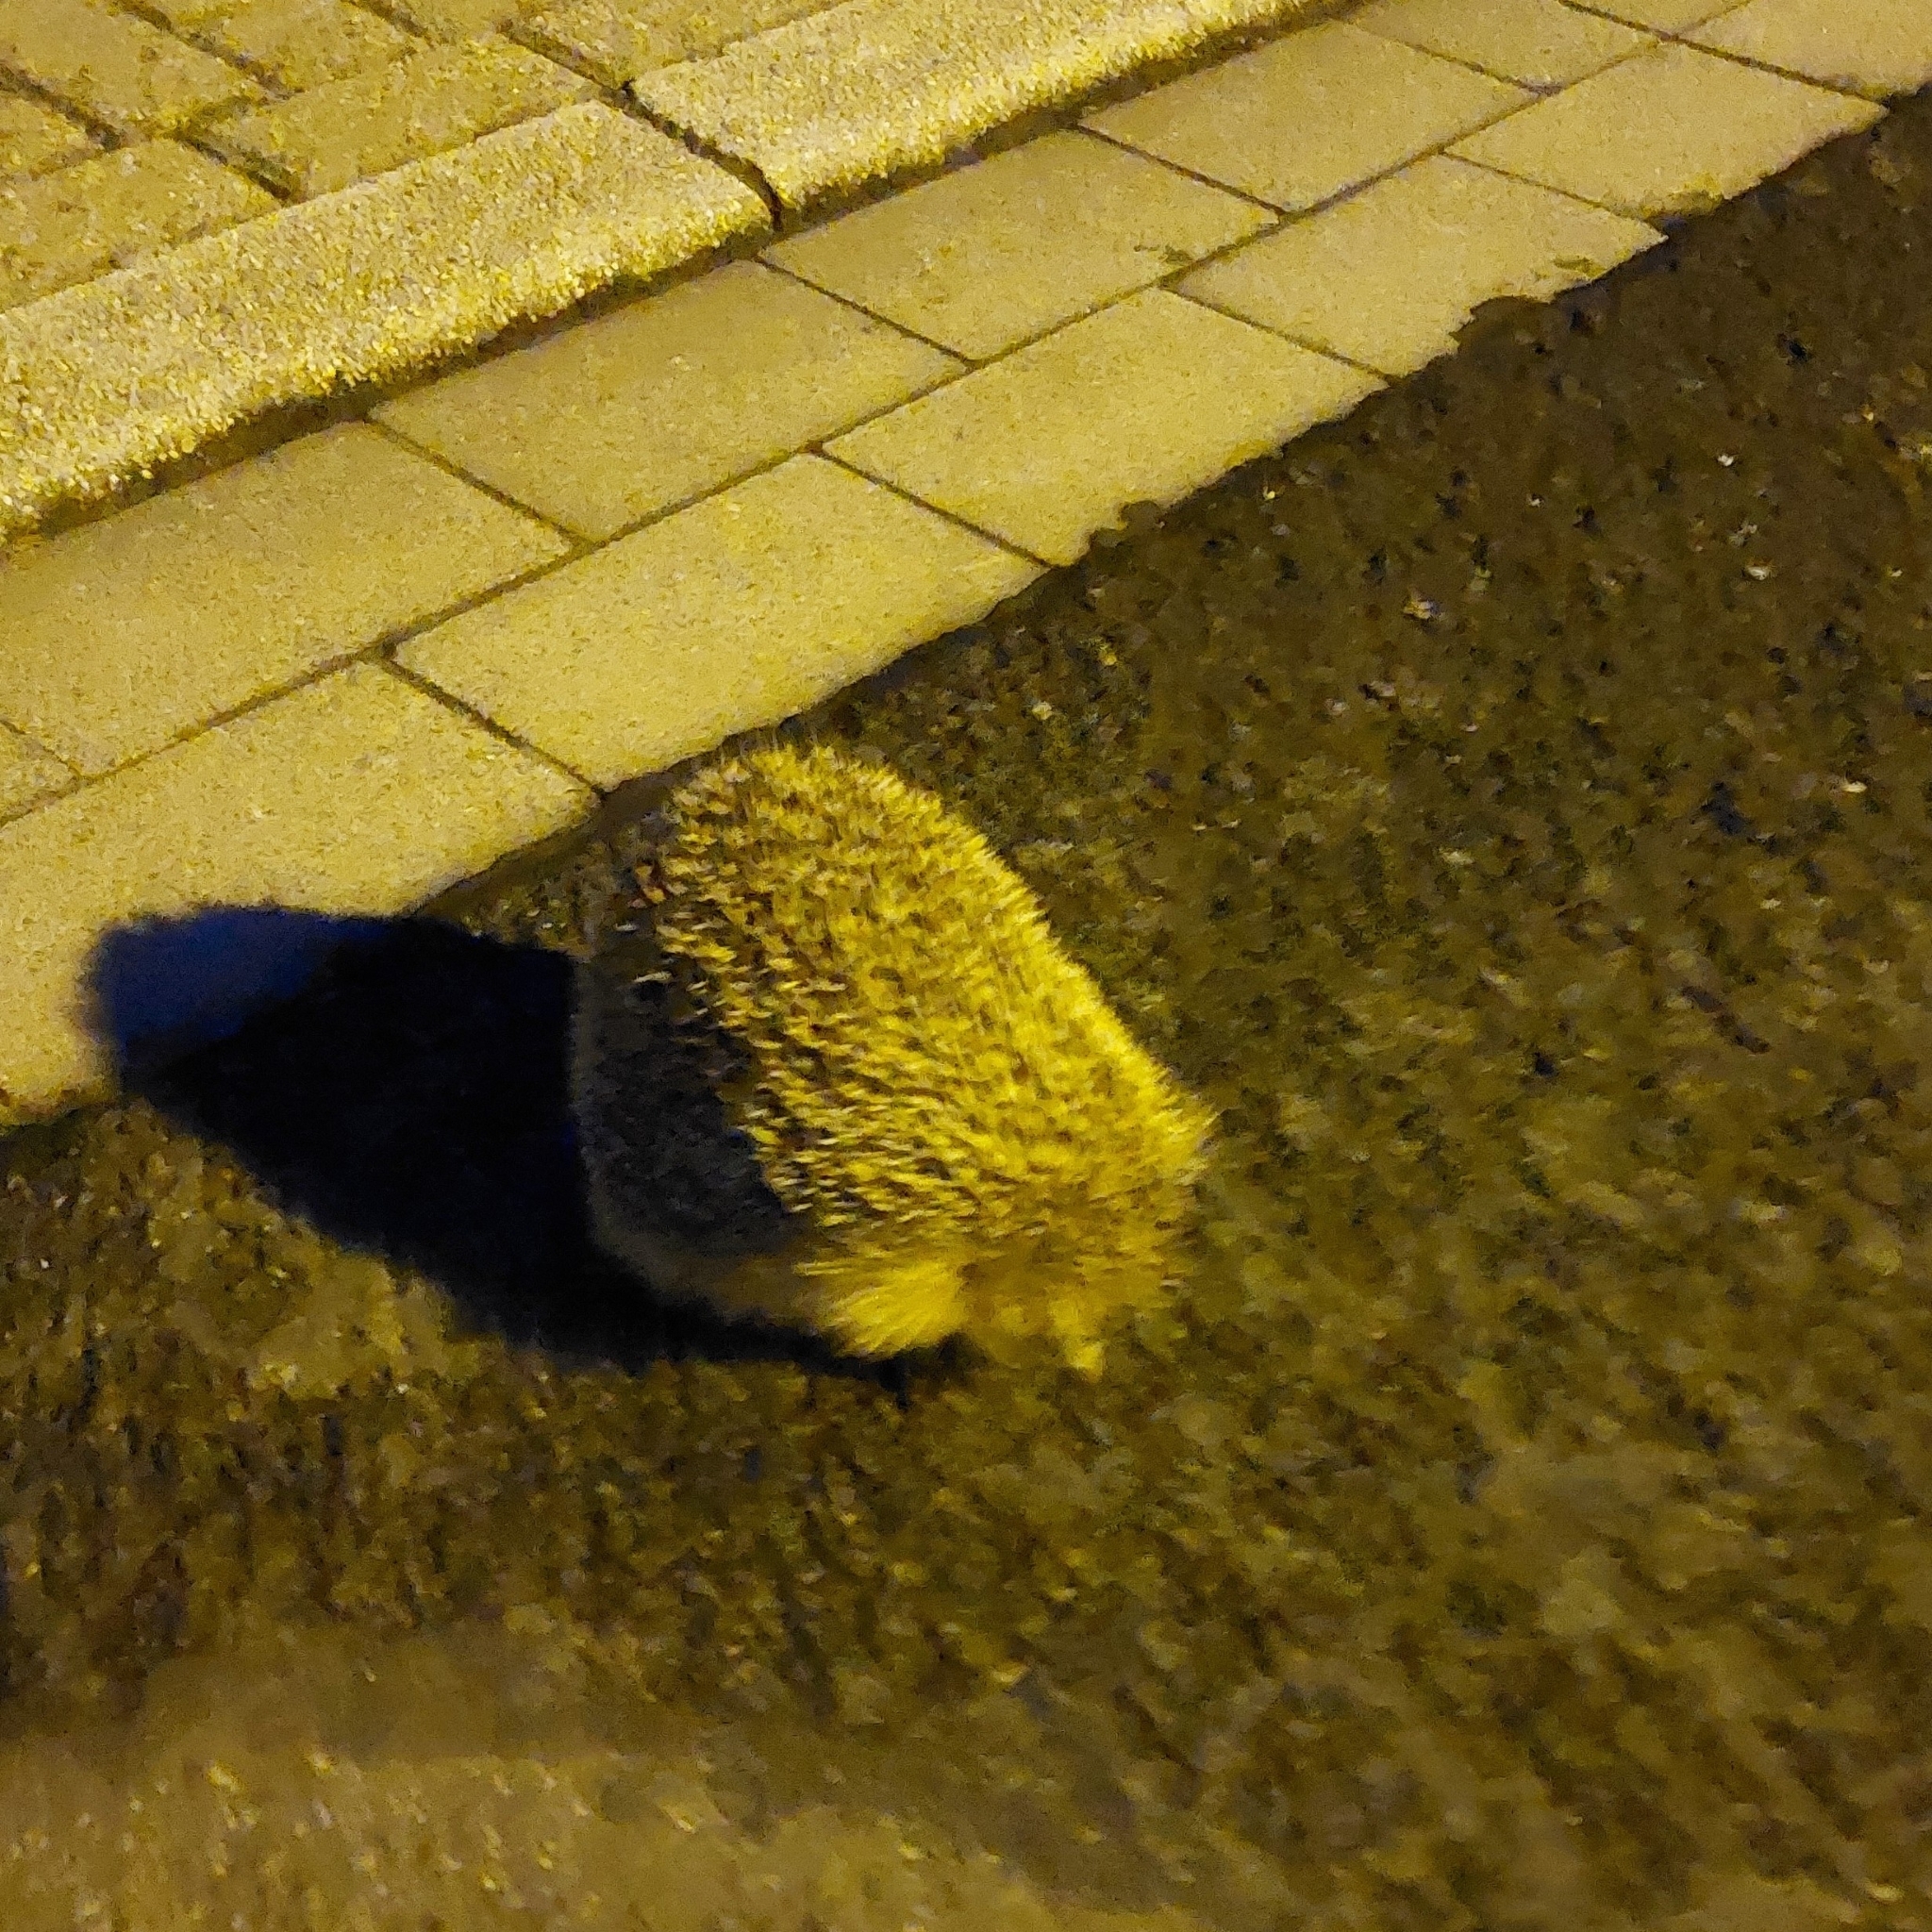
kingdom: Animalia
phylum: Chordata
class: Mammalia
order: Erinaceomorpha
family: Erinaceidae
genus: Erinaceus
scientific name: Erinaceus europaeus
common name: West european hedgehog
